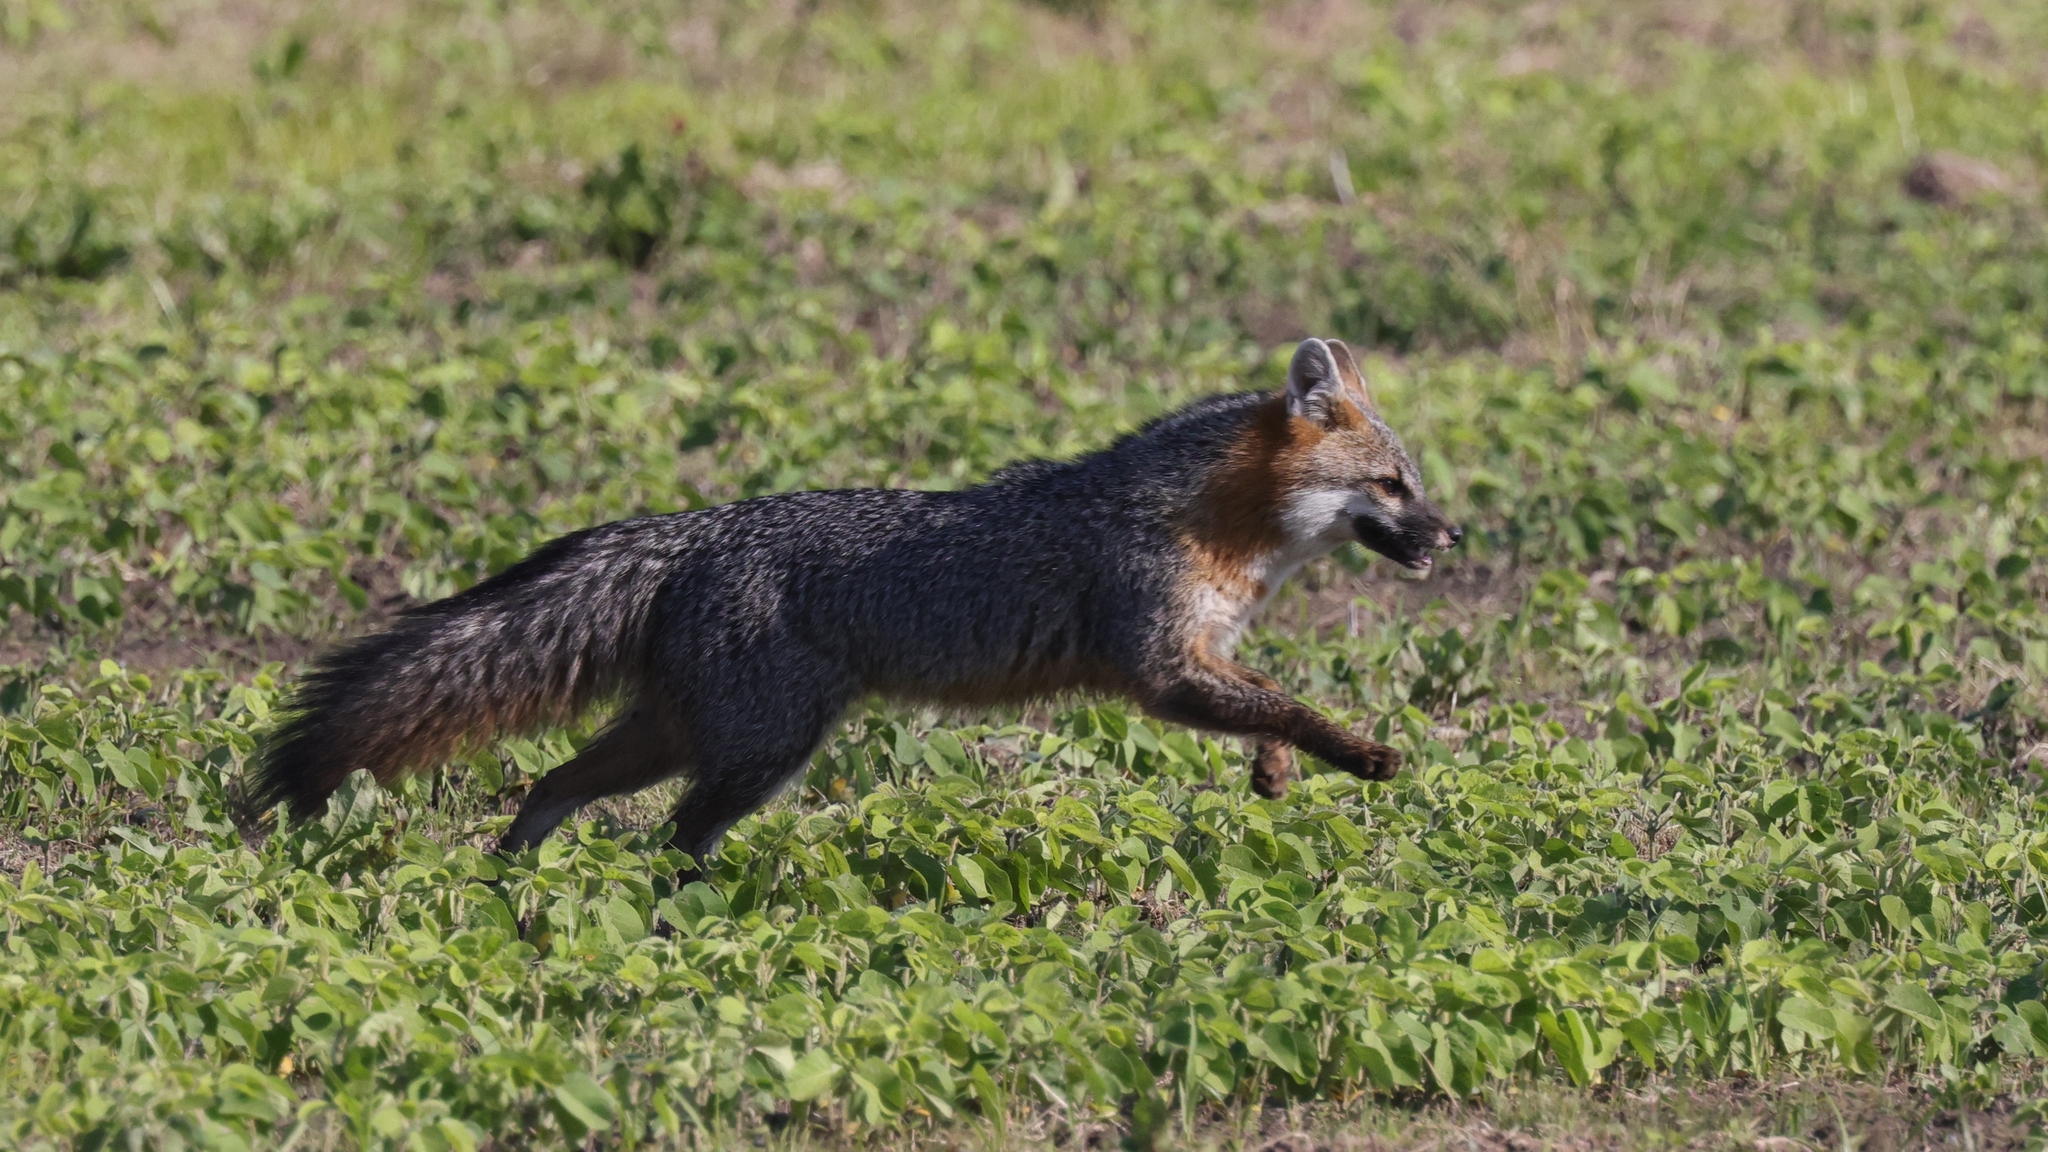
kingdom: Animalia
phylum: Chordata
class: Mammalia
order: Carnivora
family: Canidae
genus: Urocyon
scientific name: Urocyon cinereoargenteus
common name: Gray fox
